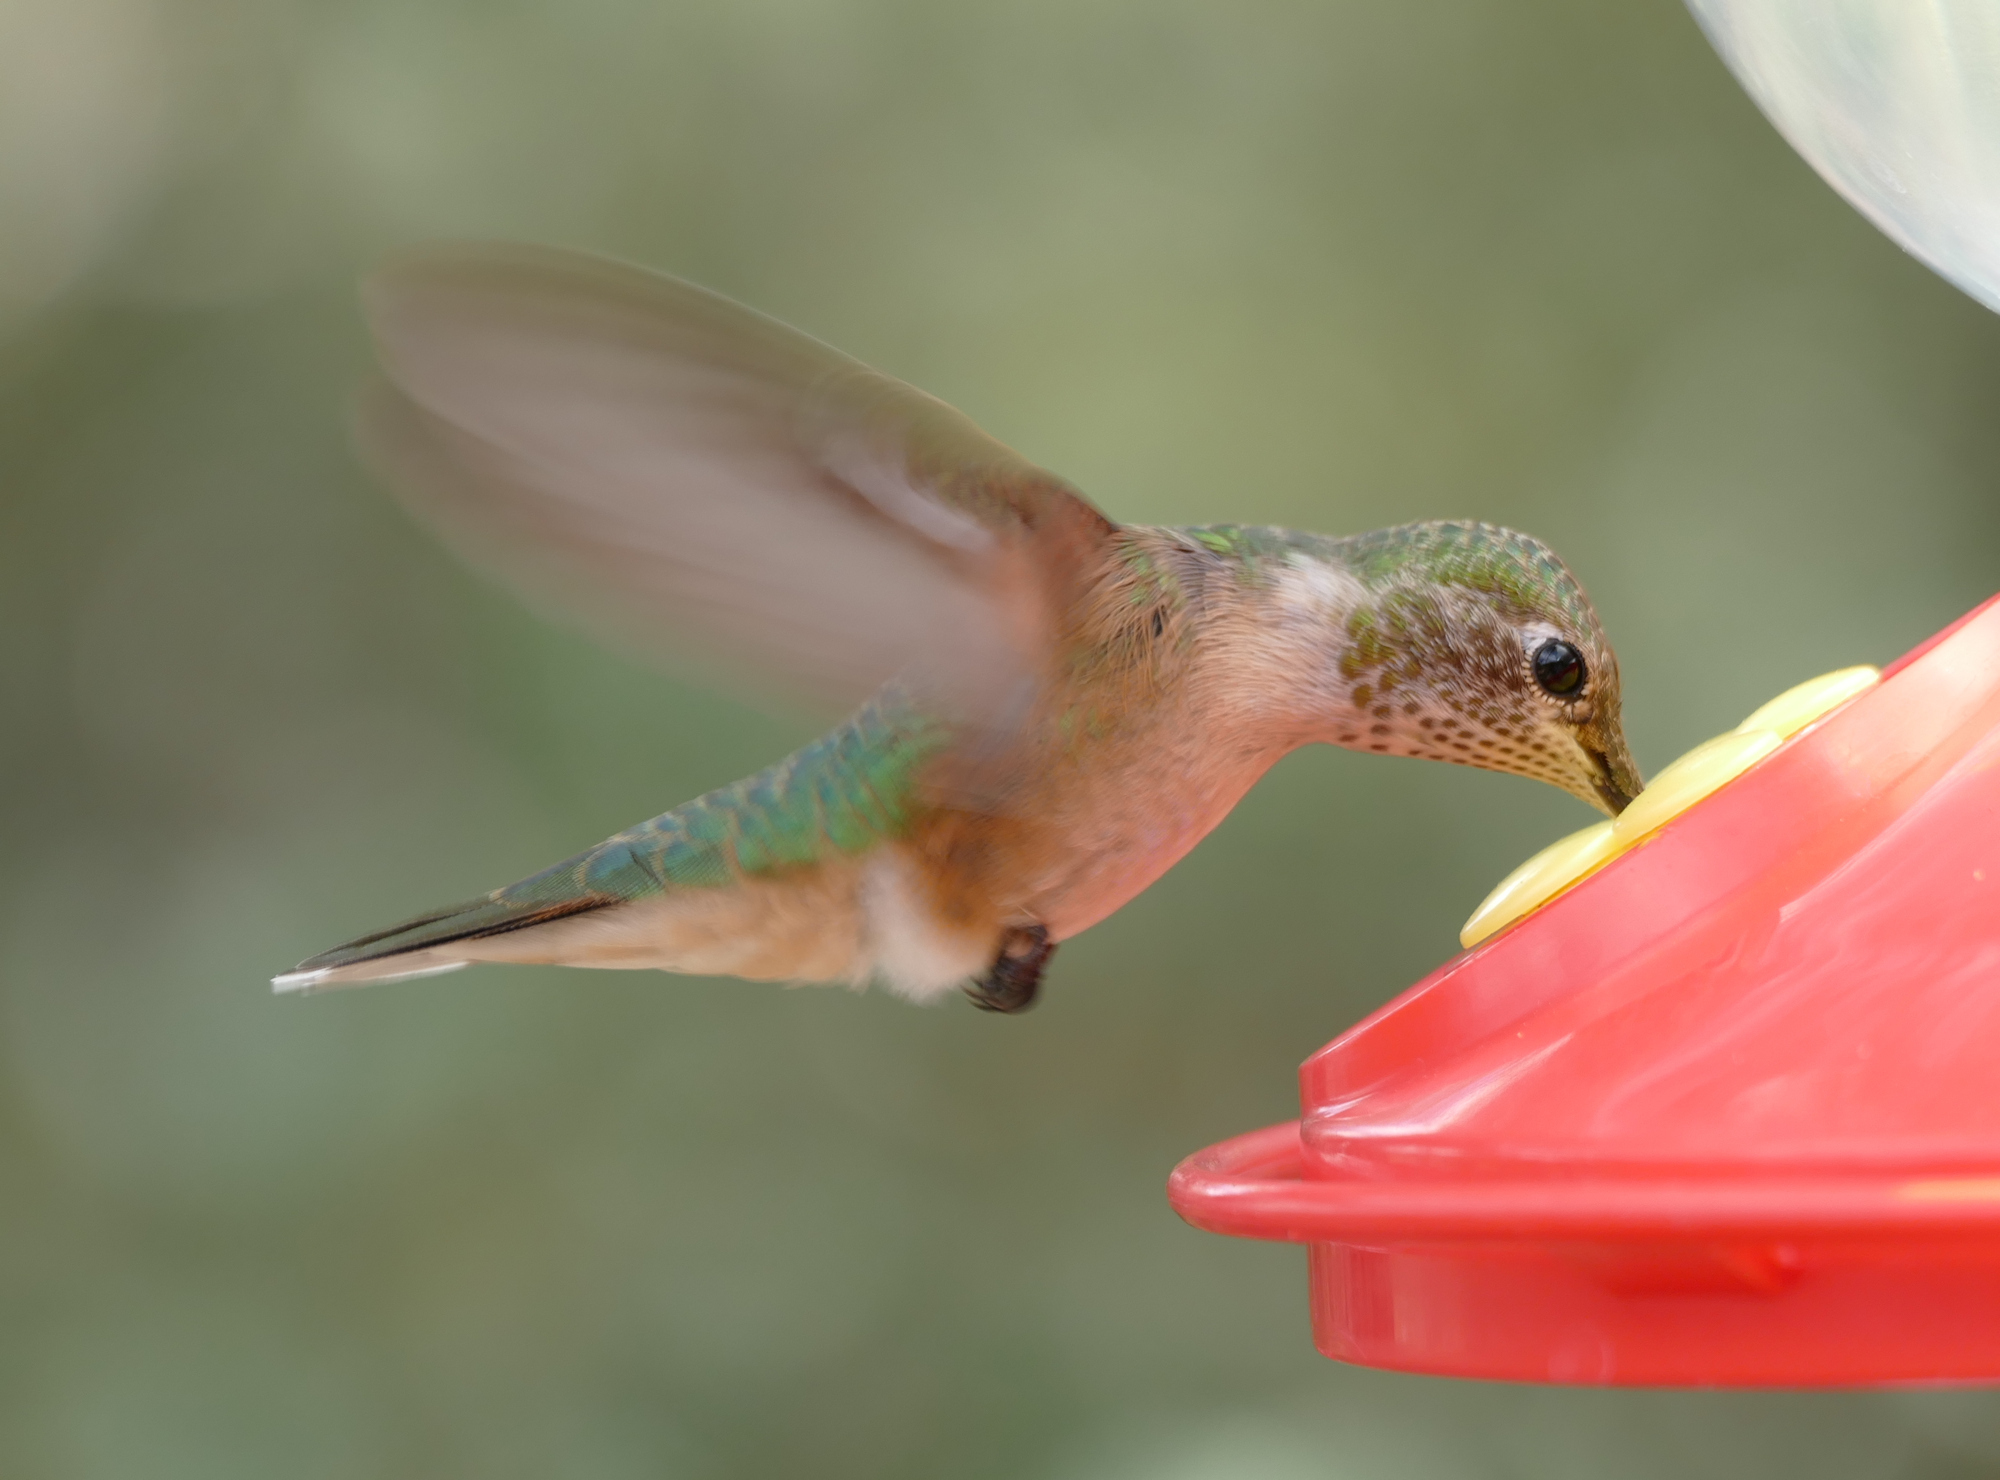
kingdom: Animalia
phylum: Chordata
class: Aves
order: Apodiformes
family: Trochilidae
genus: Selasphorus
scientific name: Selasphorus platycercus
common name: Broad-tailed hummingbird
